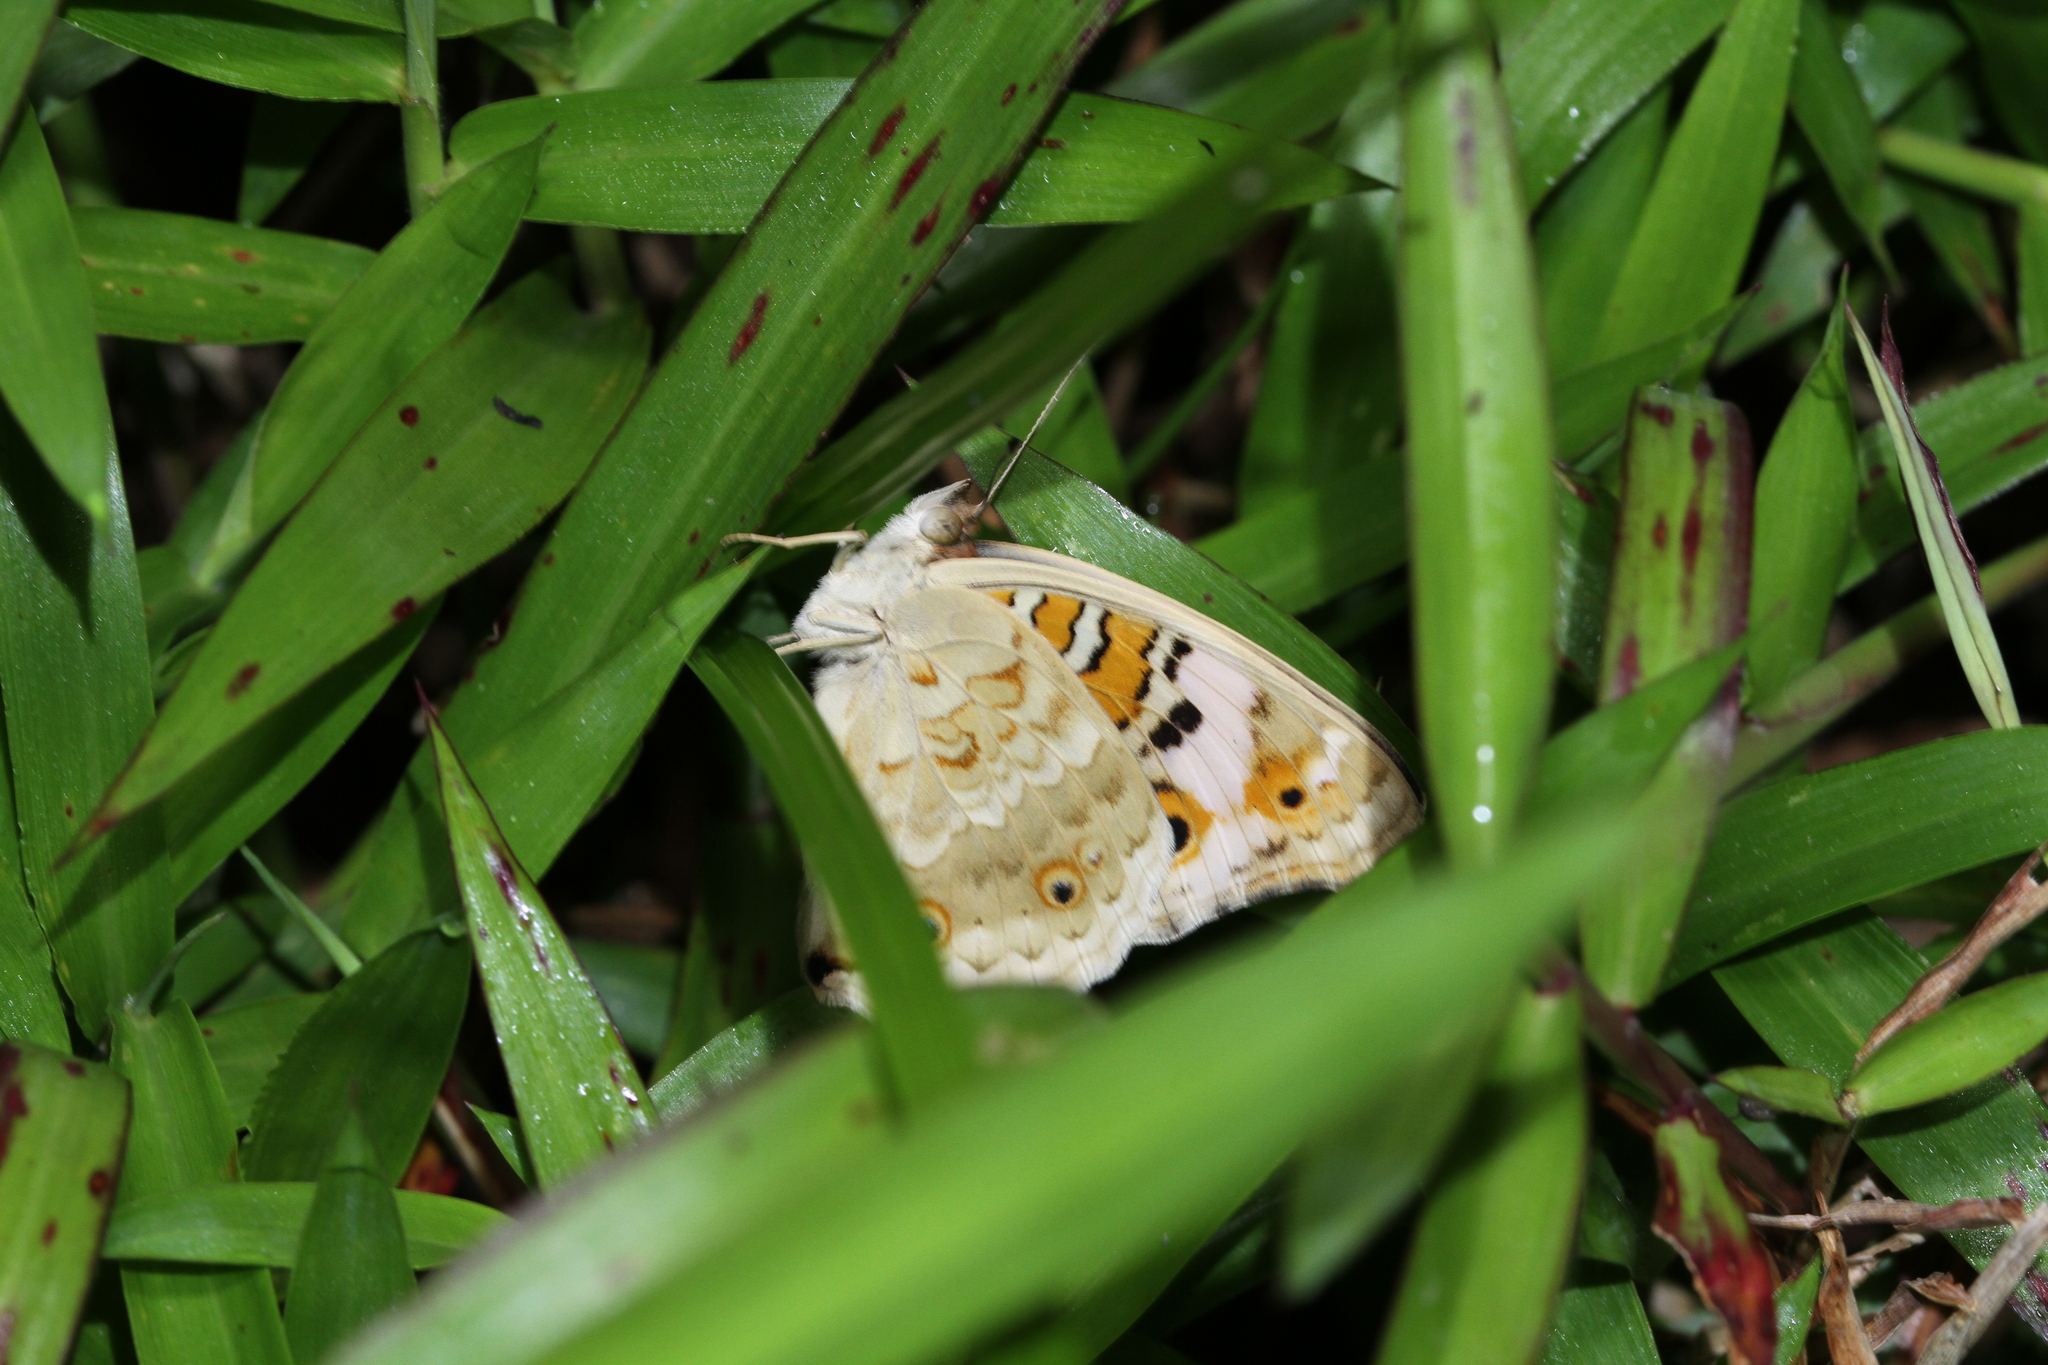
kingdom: Animalia
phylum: Arthropoda
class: Insecta
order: Lepidoptera
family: Nymphalidae
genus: Junonia
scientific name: Junonia orithya
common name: Blue pansy
